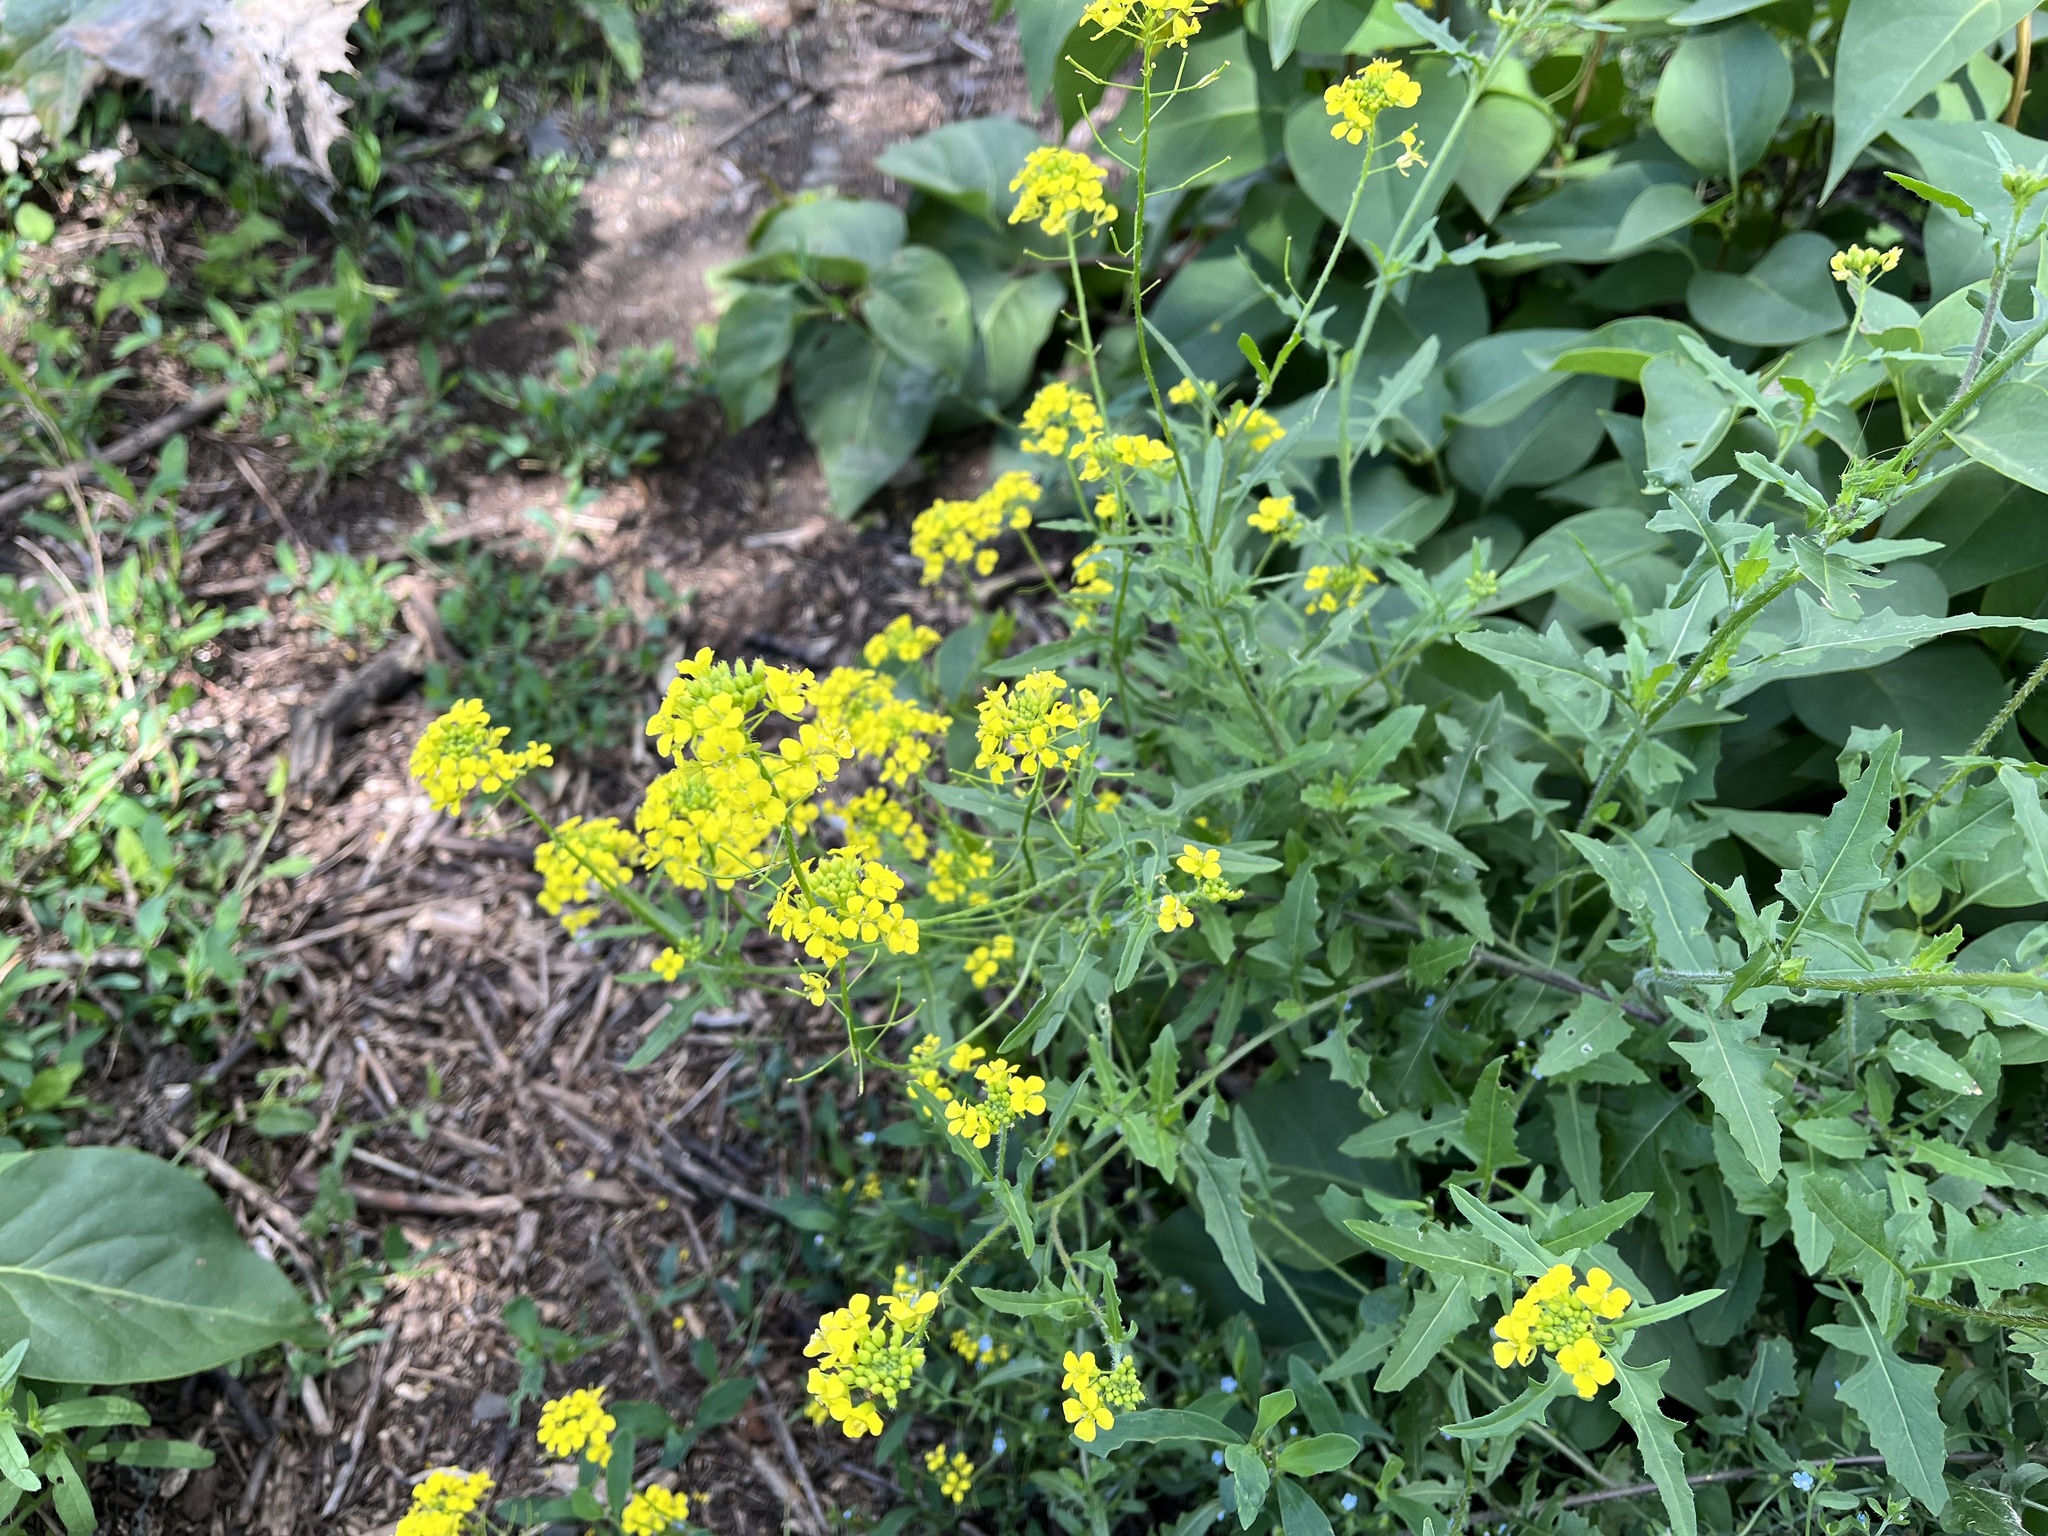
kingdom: Plantae
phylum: Tracheophyta
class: Magnoliopsida
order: Brassicales
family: Brassicaceae
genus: Sisymbrium
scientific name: Sisymbrium loeselii
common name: False london-rocket
